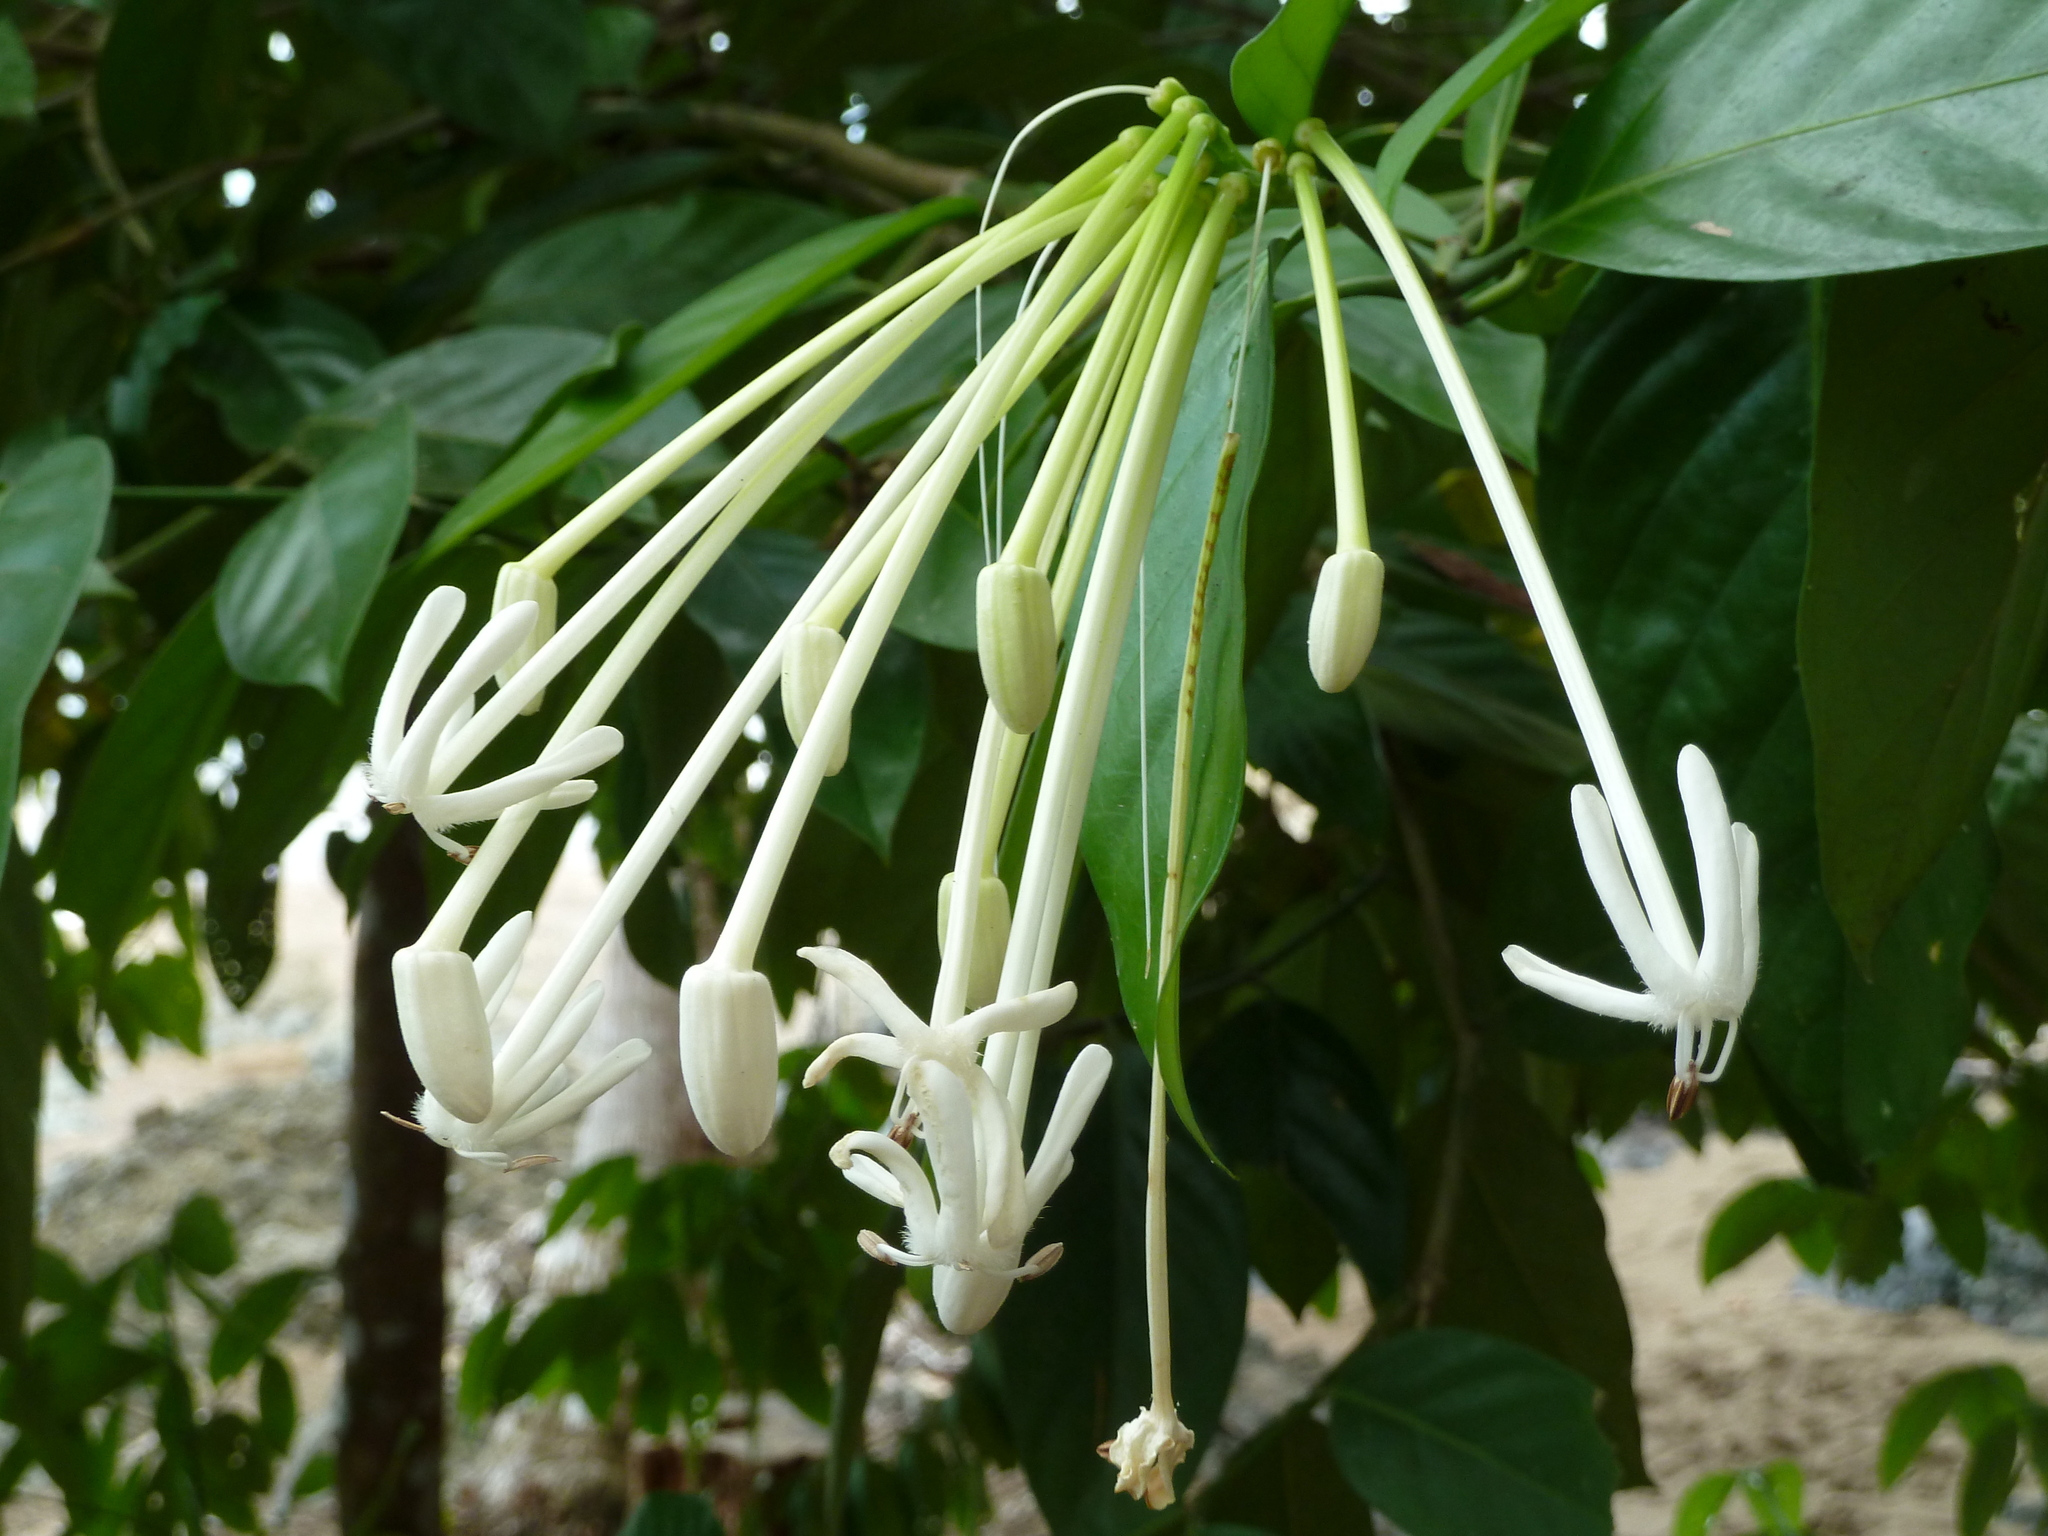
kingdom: Plantae
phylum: Tracheophyta
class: Magnoliopsida
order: Gentianales
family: Rubiaceae
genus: Posoqueria
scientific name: Posoqueria latifolia
